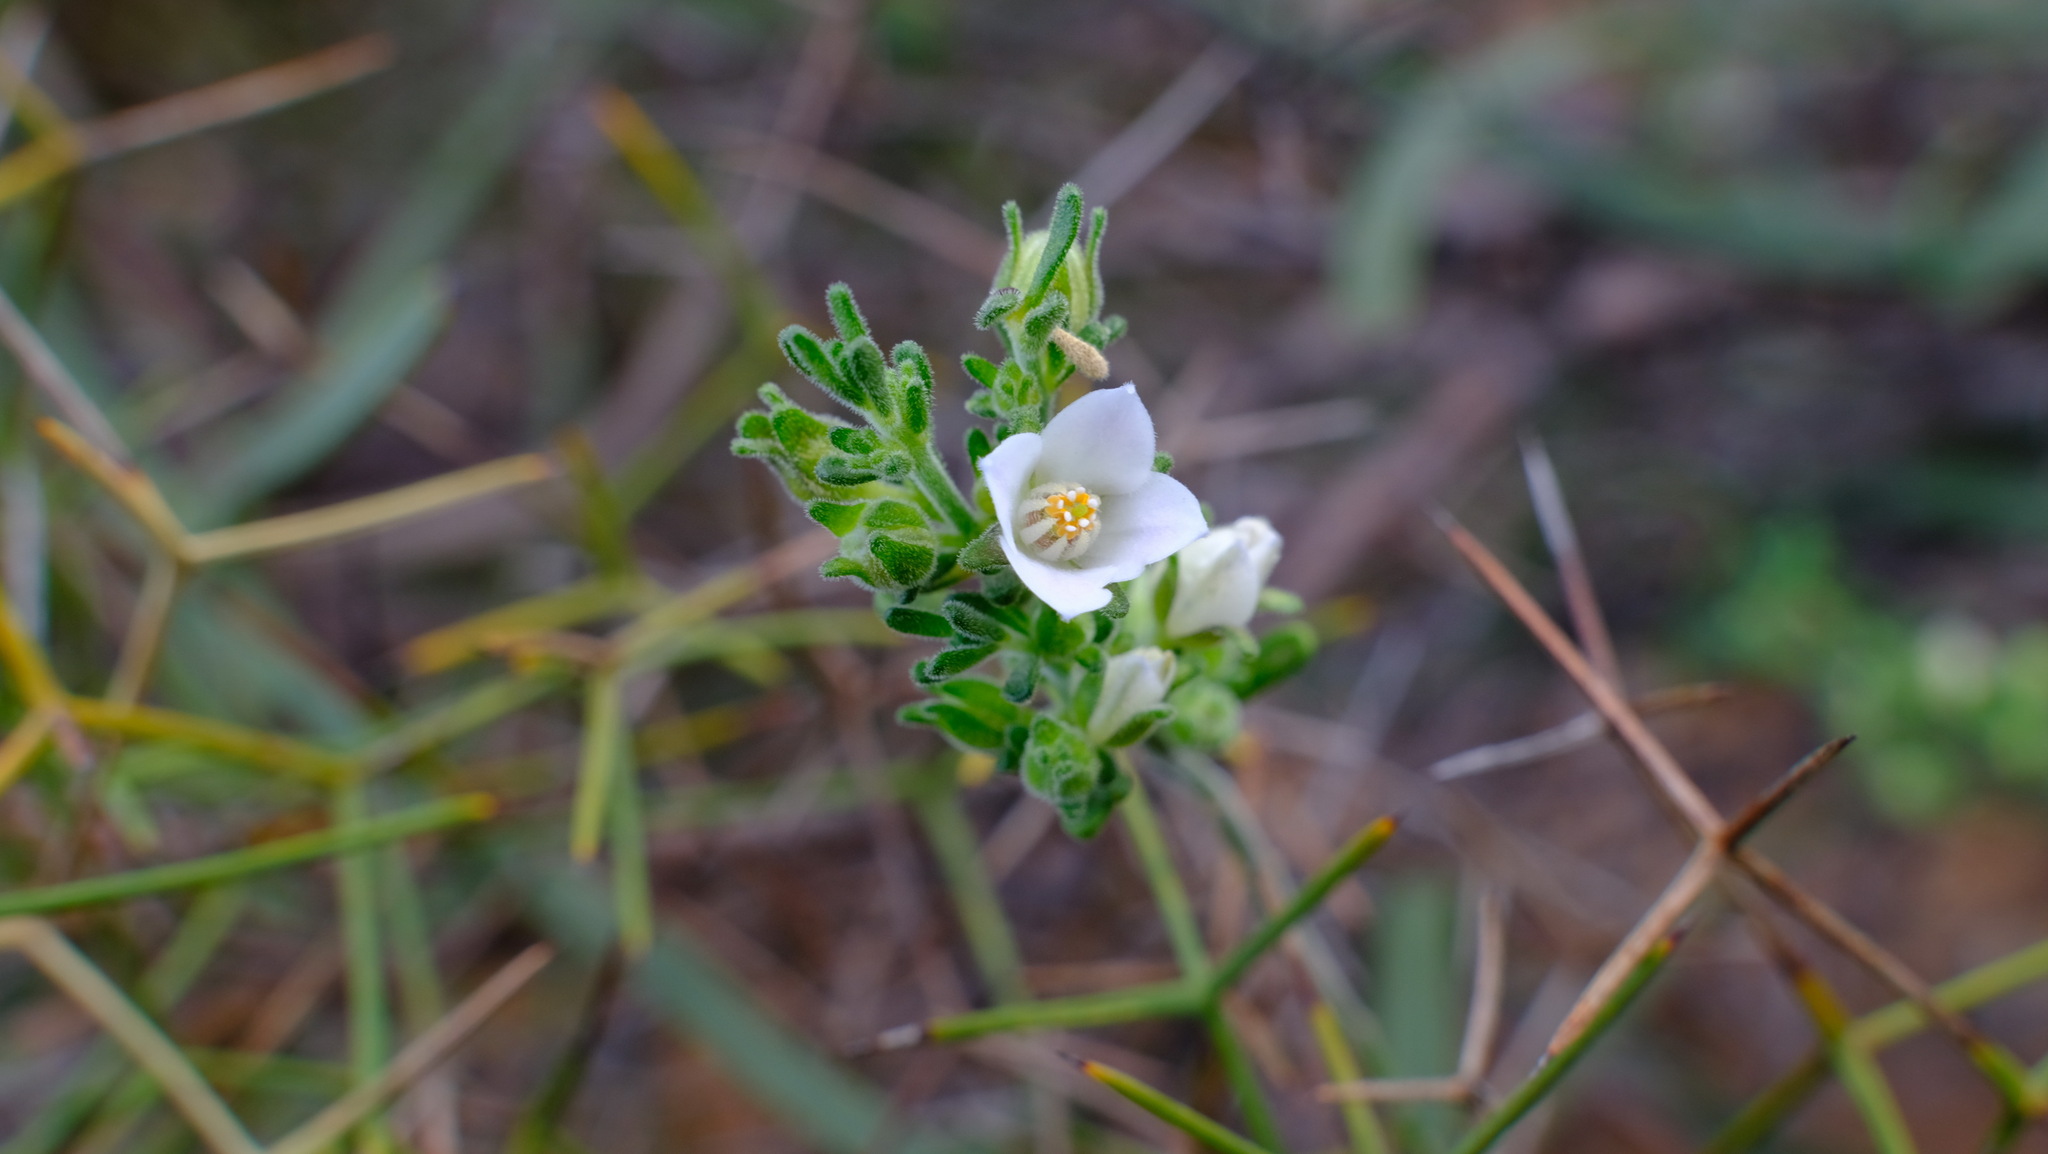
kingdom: Plantae
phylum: Tracheophyta
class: Magnoliopsida
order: Sapindales
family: Rutaceae
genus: Cyanothamnus
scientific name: Cyanothamnus coerulescens
